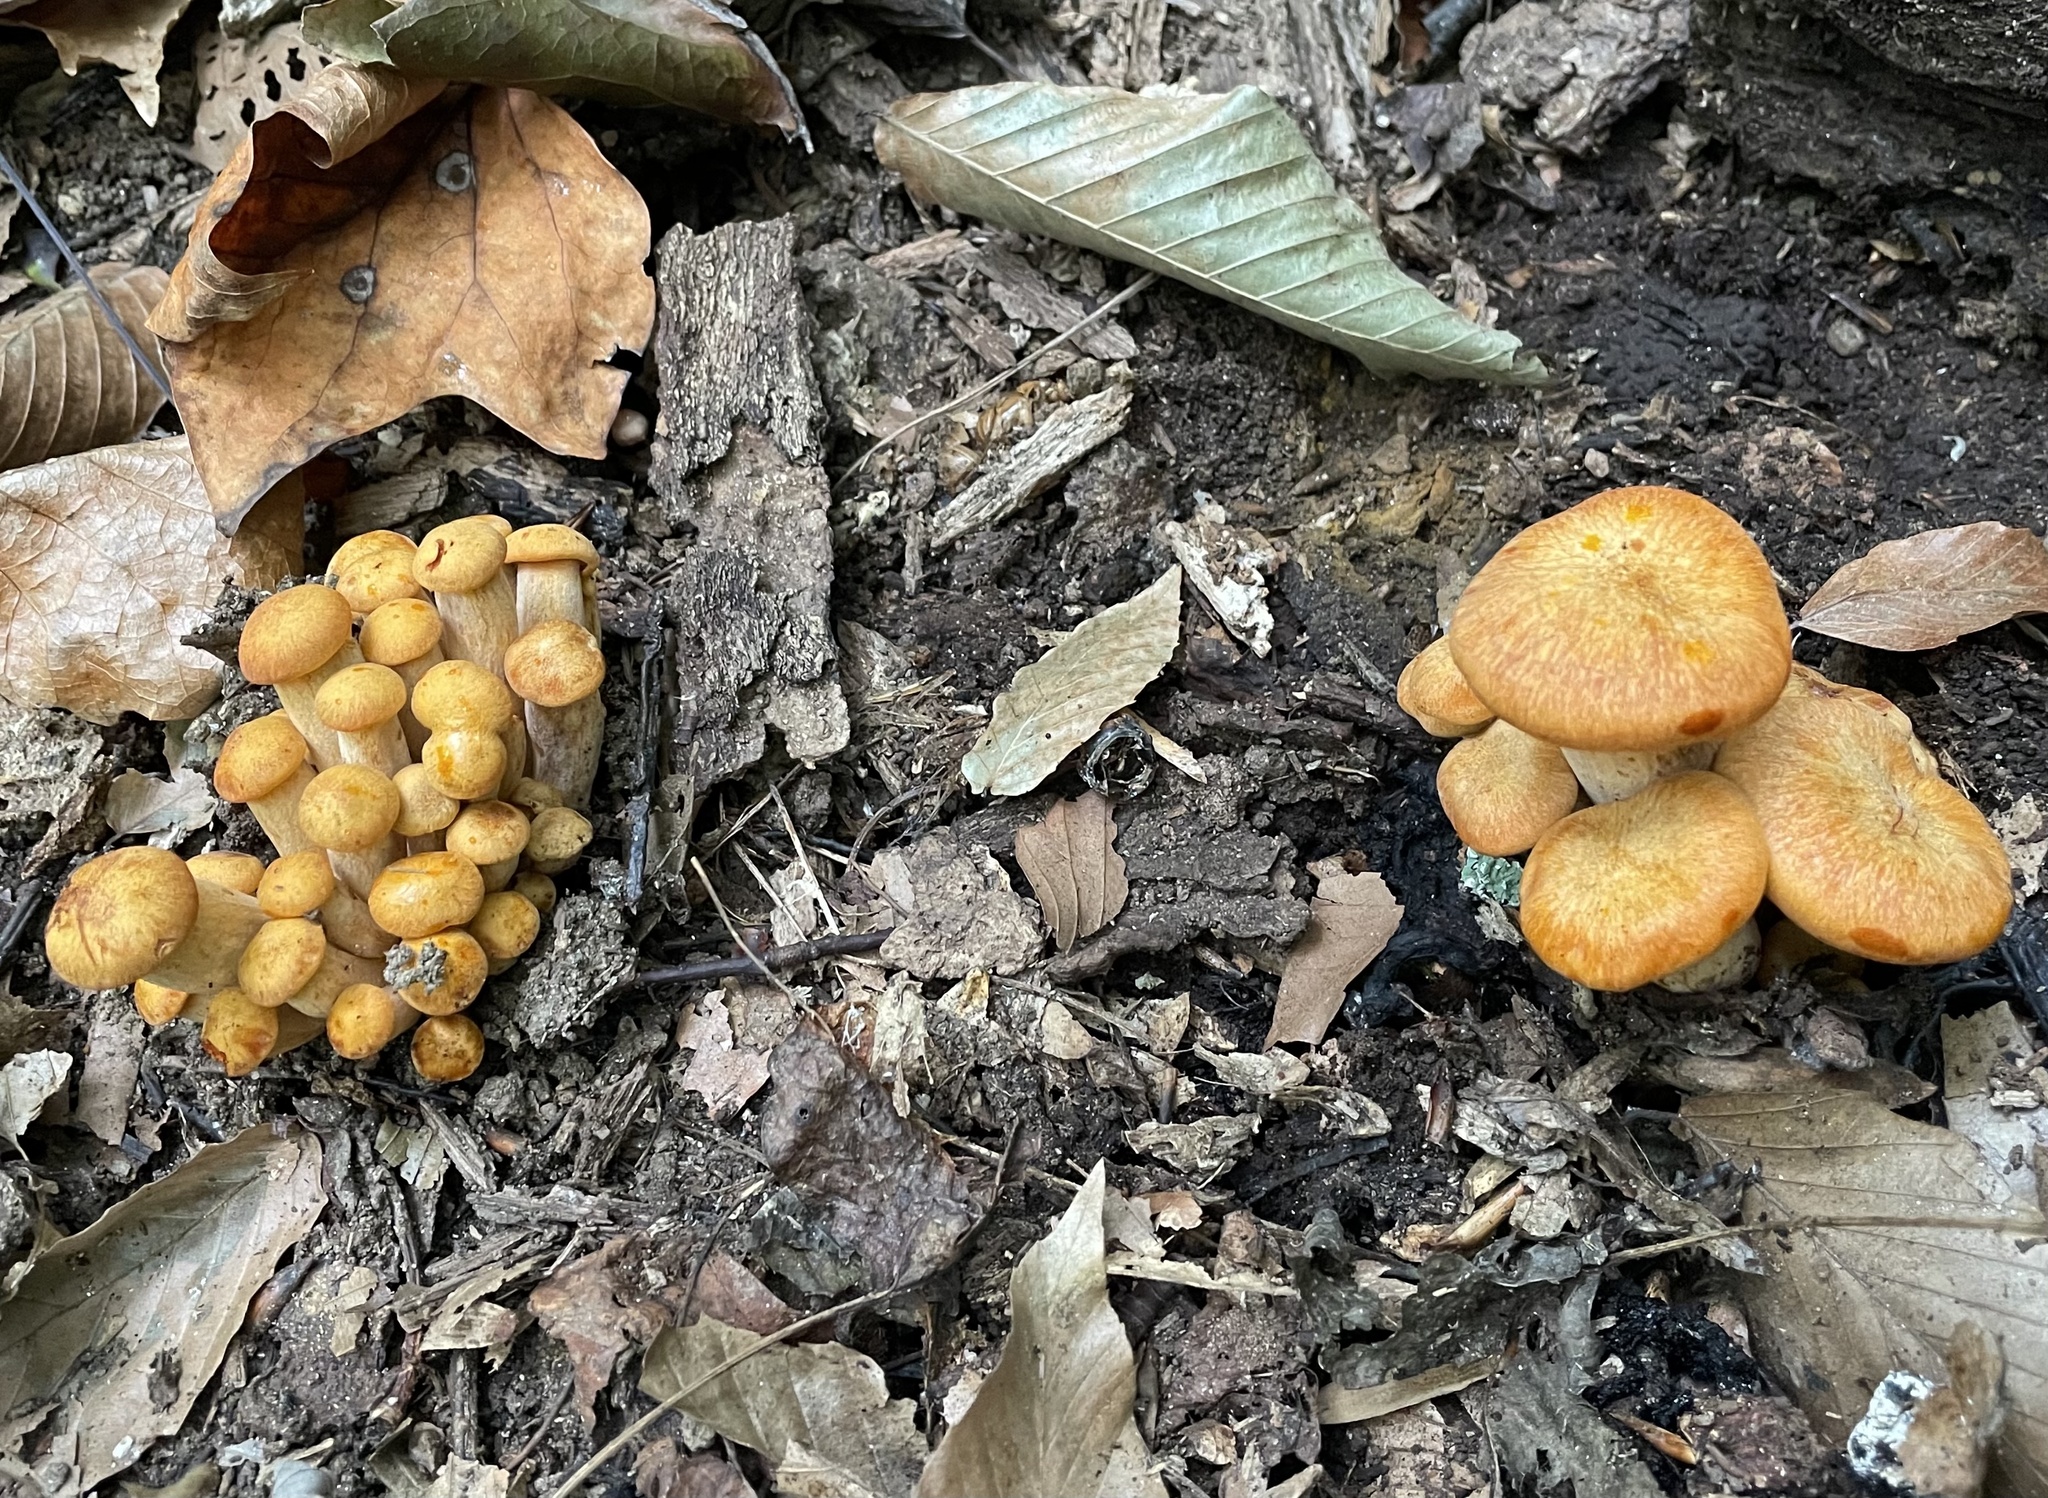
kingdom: Fungi
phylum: Basidiomycota
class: Agaricomycetes
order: Agaricales
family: Omphalotaceae
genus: Omphalotus
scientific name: Omphalotus illudens
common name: Jack o lantern
